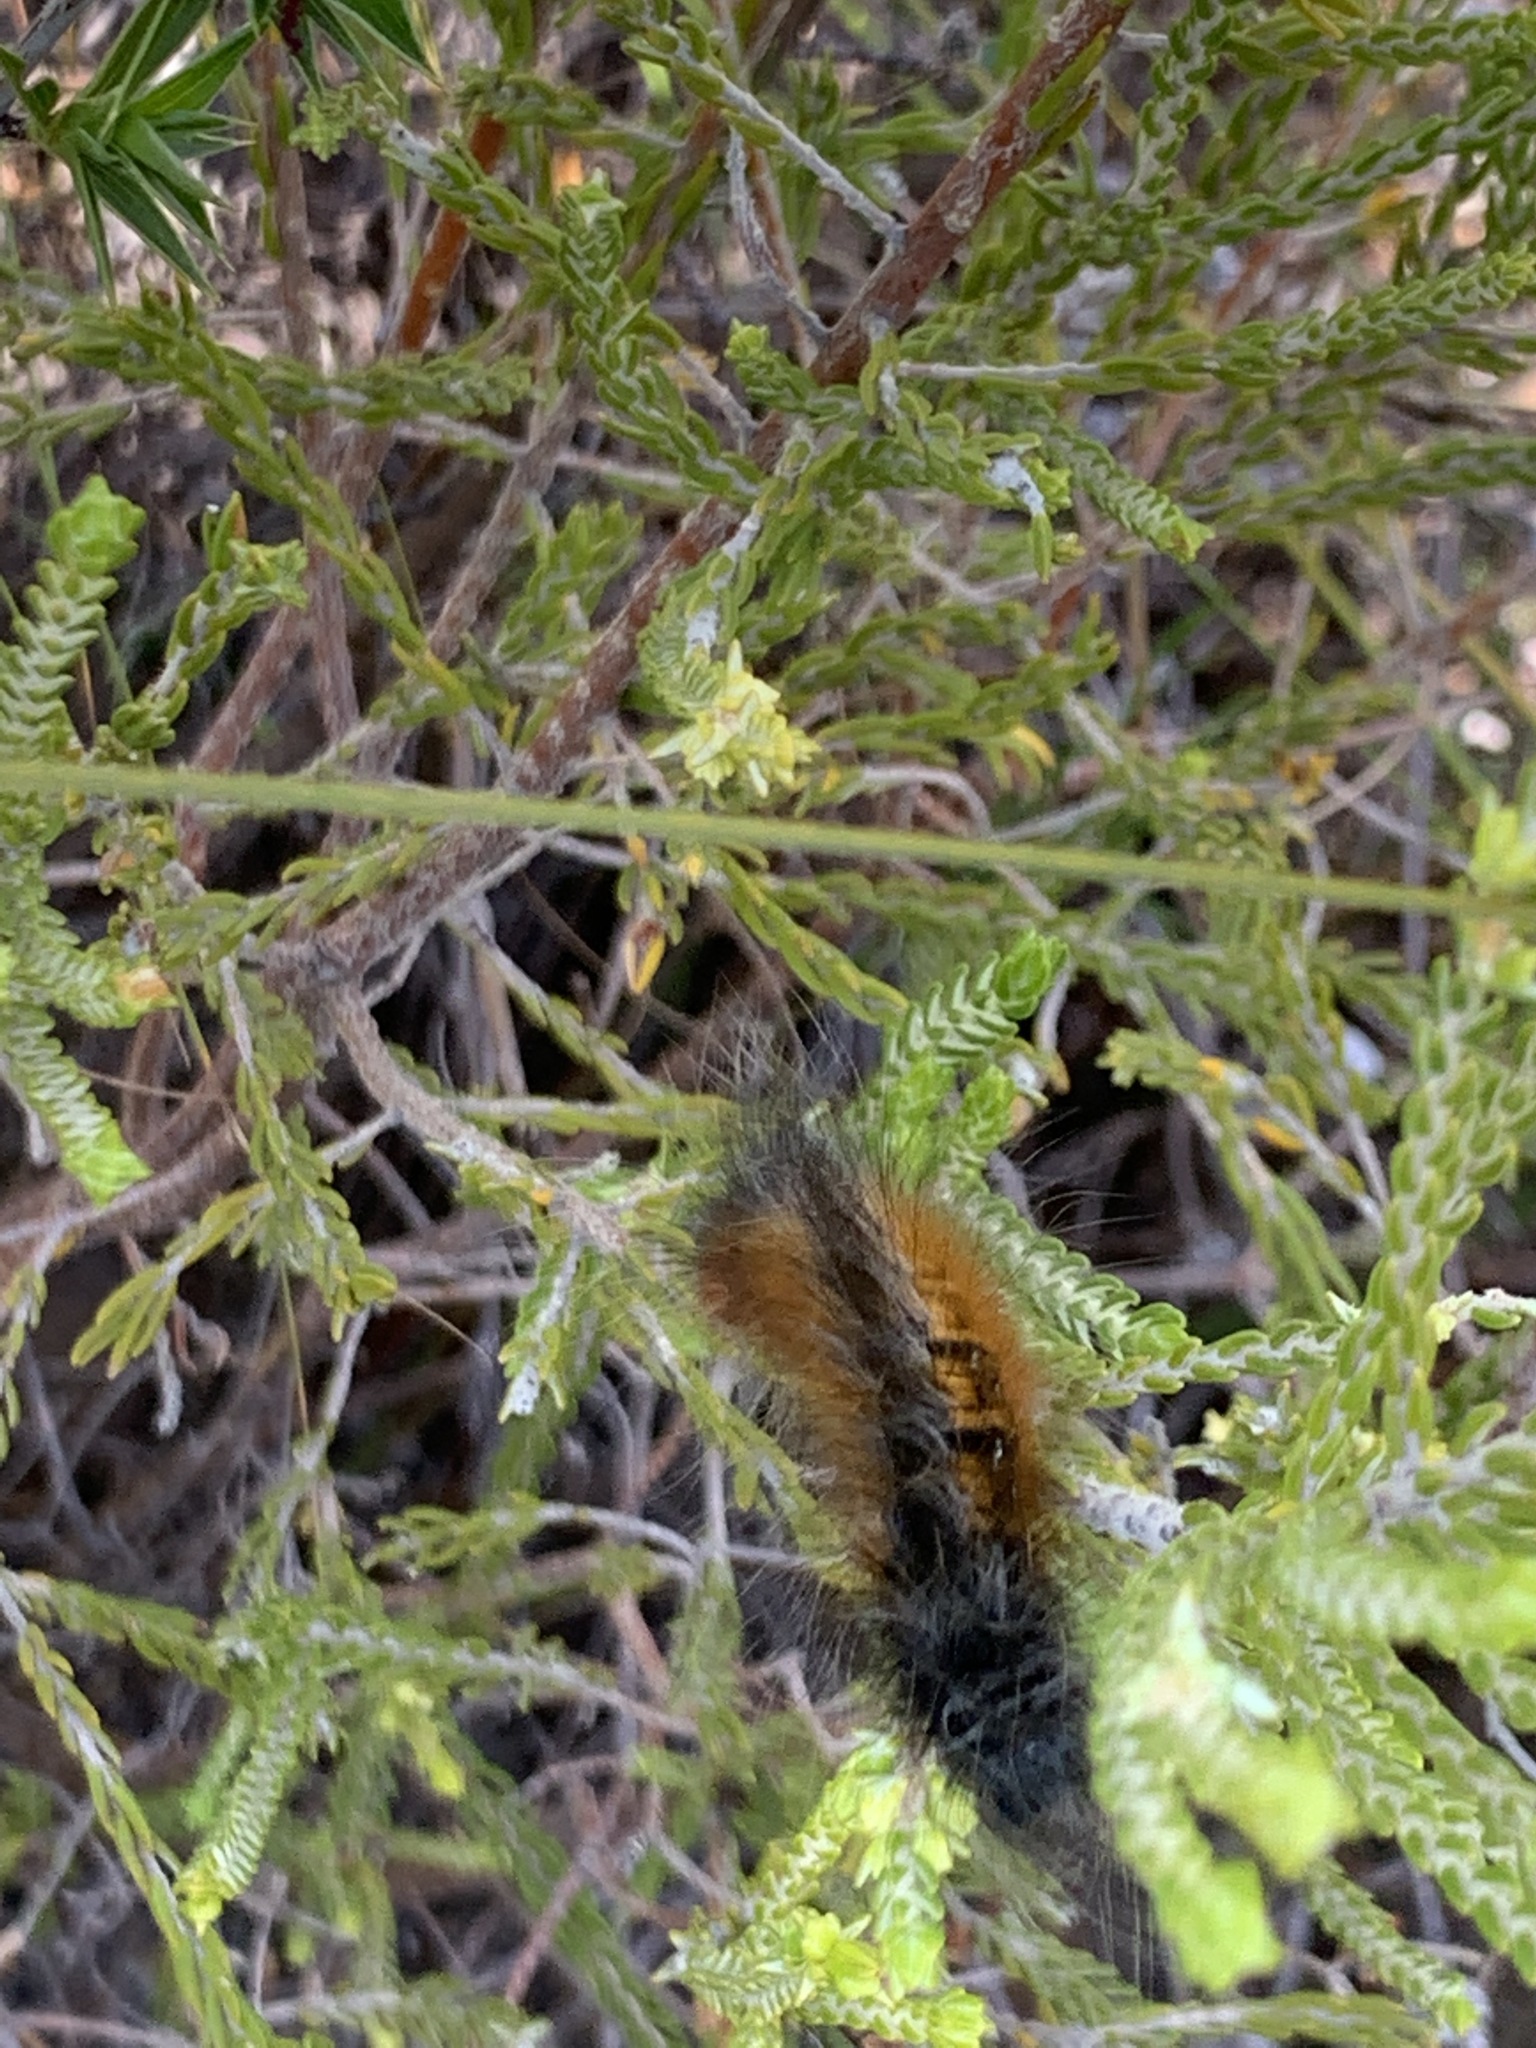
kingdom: Animalia
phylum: Arthropoda
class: Insecta
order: Lepidoptera
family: Lasiocampidae
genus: Mesocelis
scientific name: Mesocelis monticola
